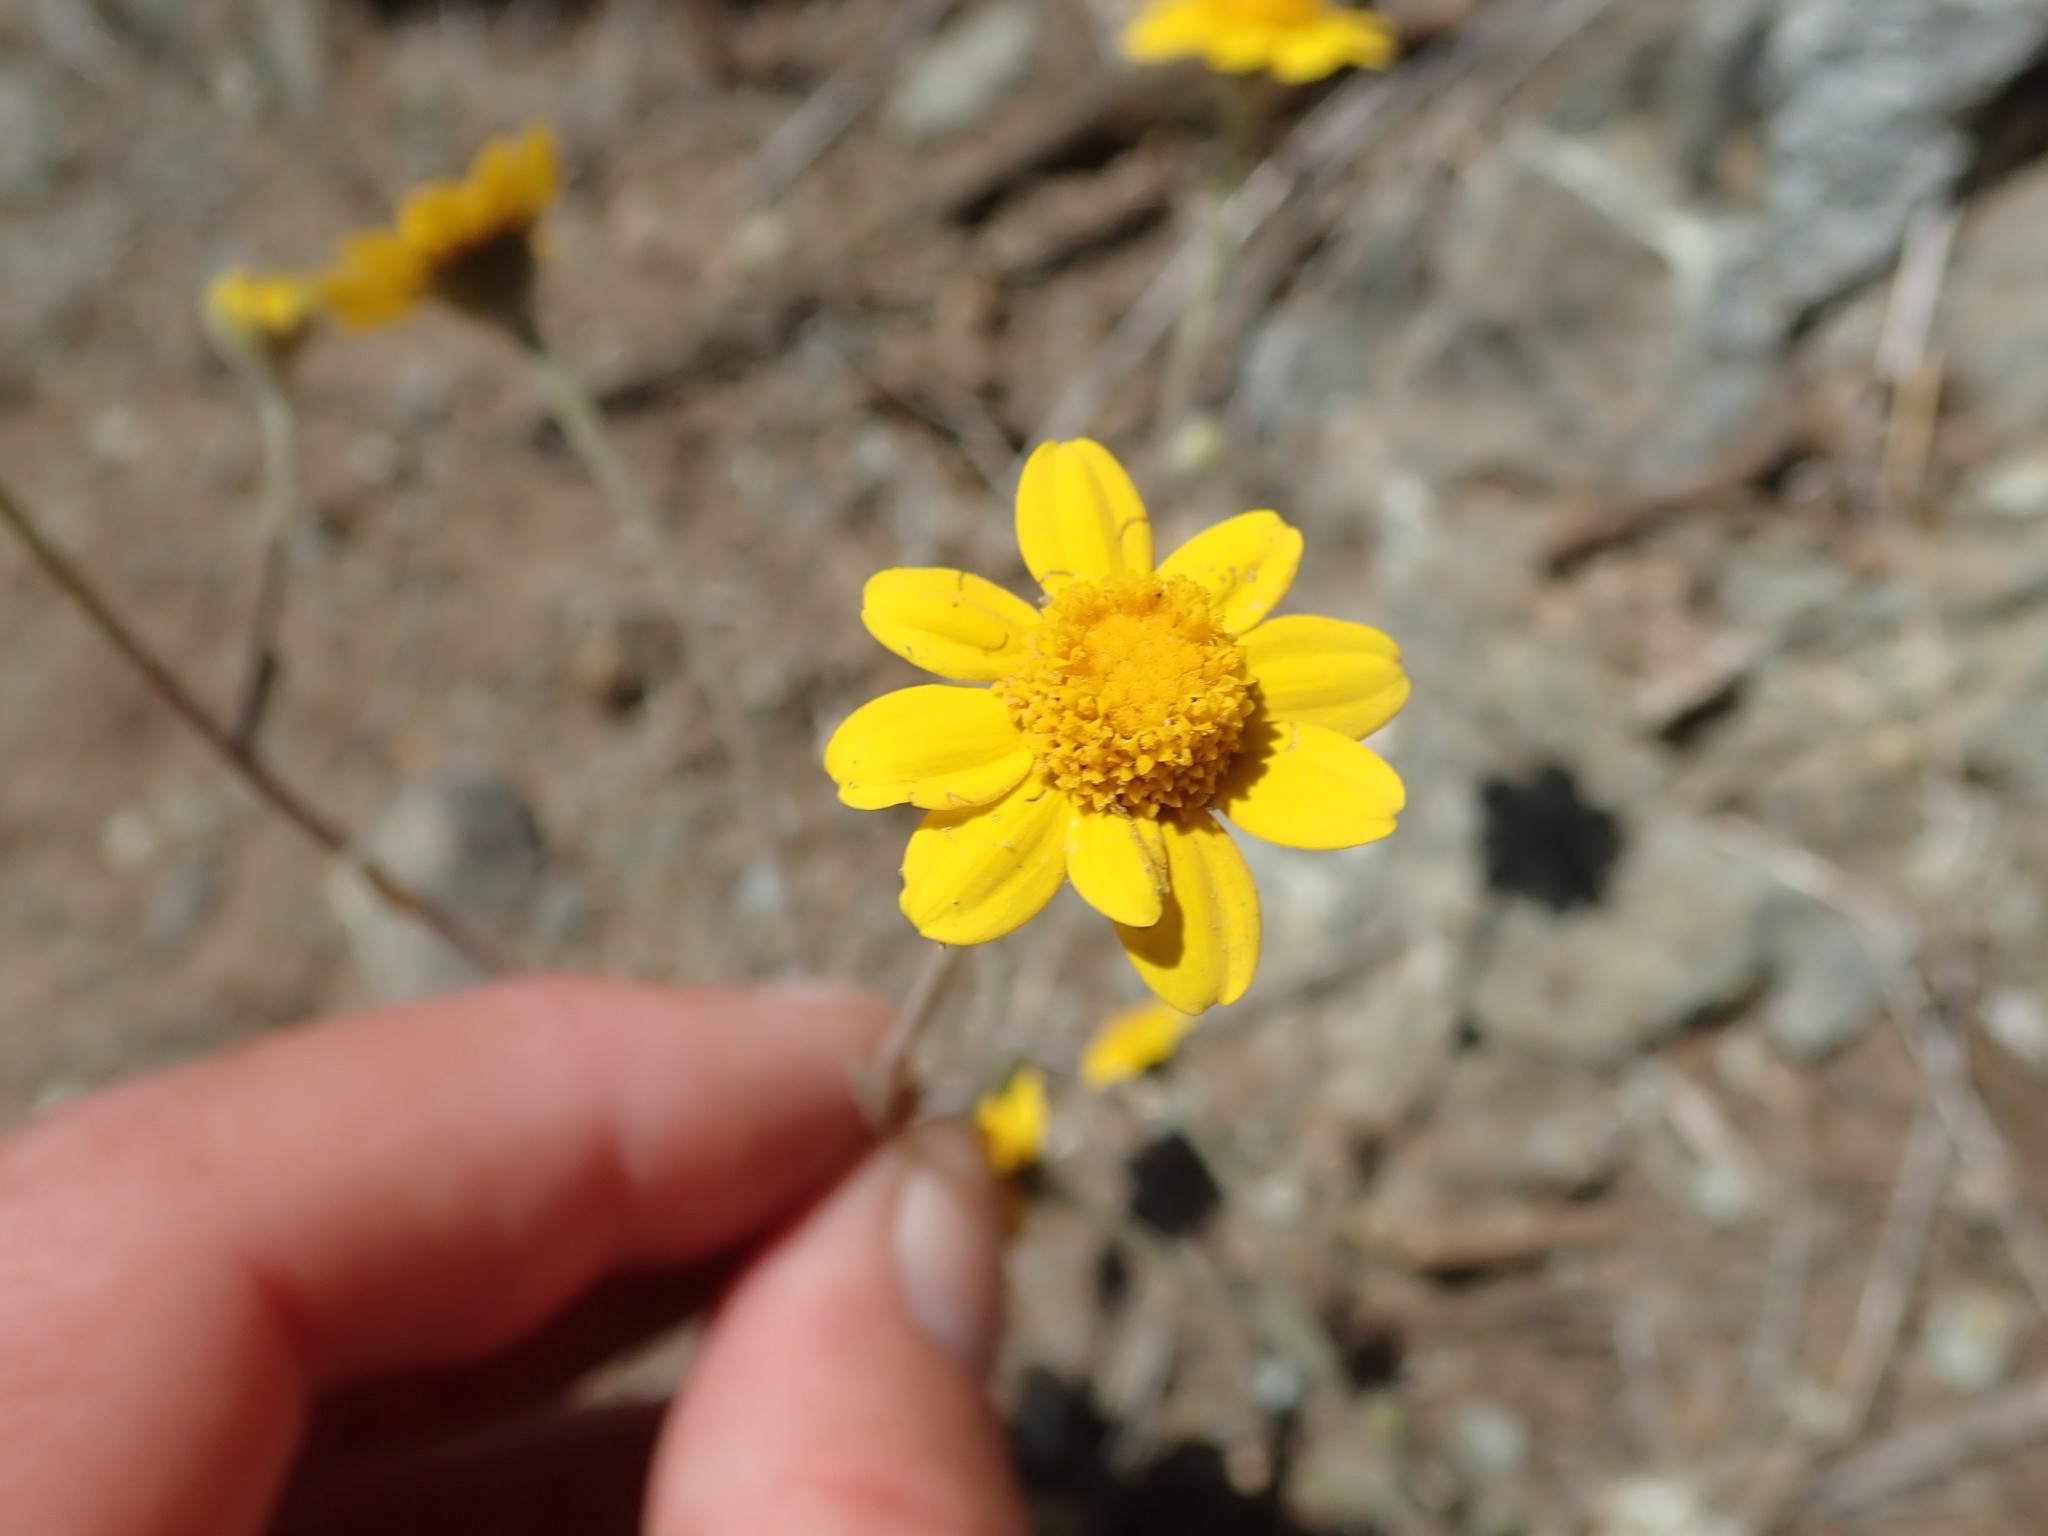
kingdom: Plantae
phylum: Tracheophyta
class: Magnoliopsida
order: Asterales
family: Asteraceae
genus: Monolopia
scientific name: Monolopia gracilens
